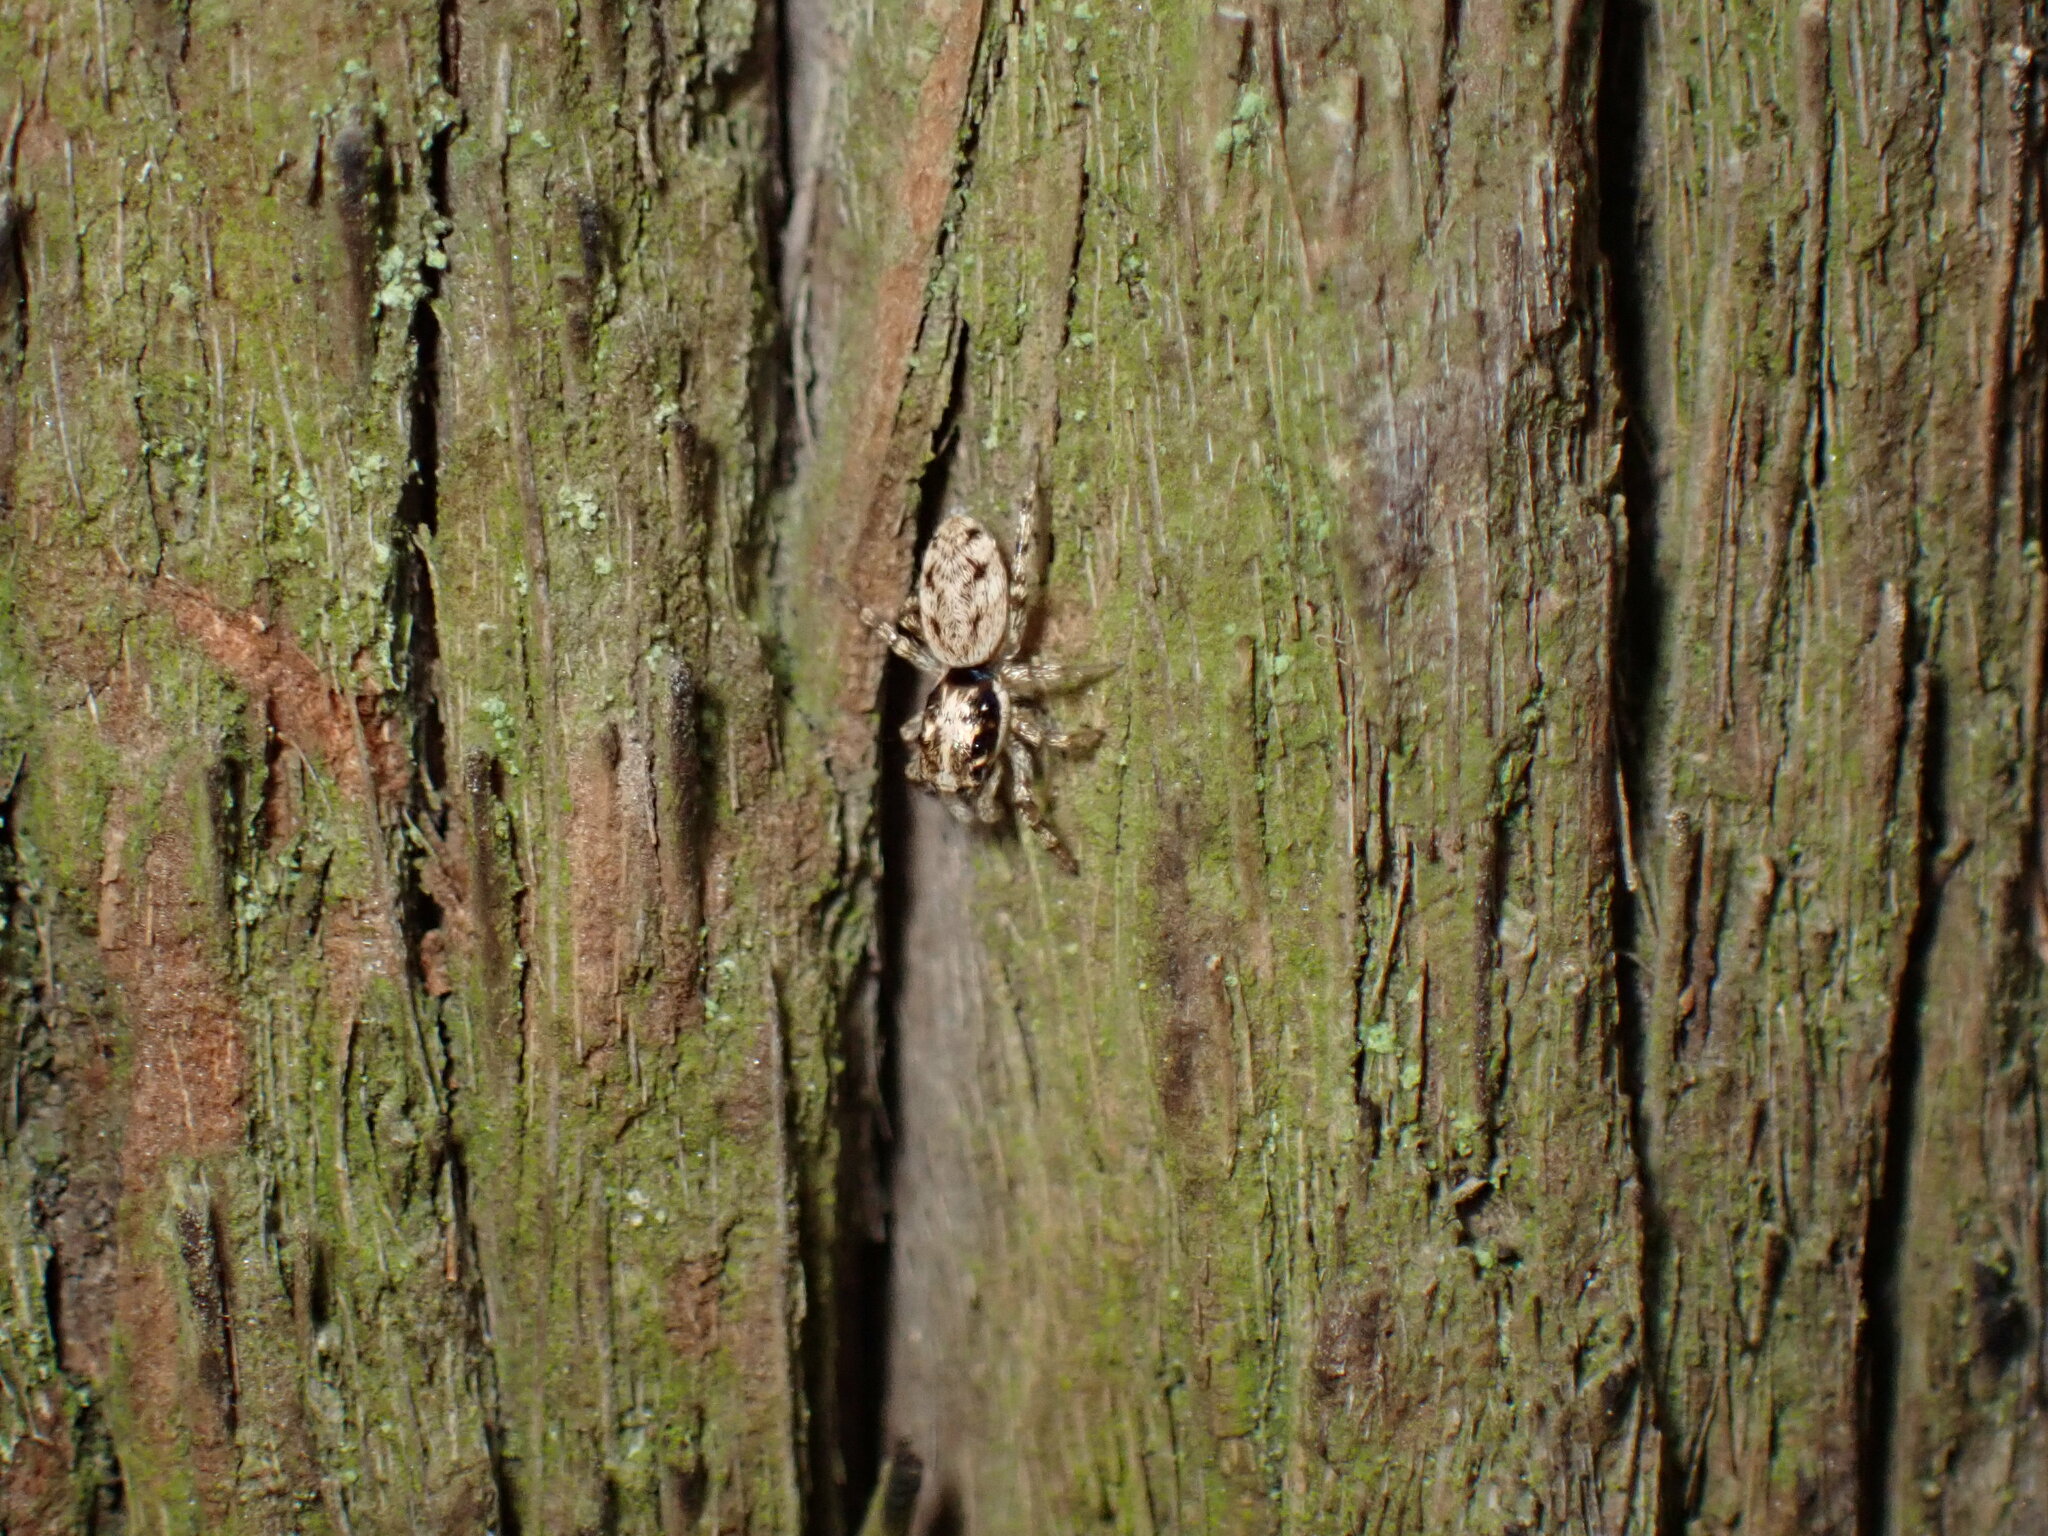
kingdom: Animalia
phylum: Arthropoda
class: Arachnida
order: Araneae
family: Salticidae
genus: Salticus
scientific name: Salticus mutabilis
